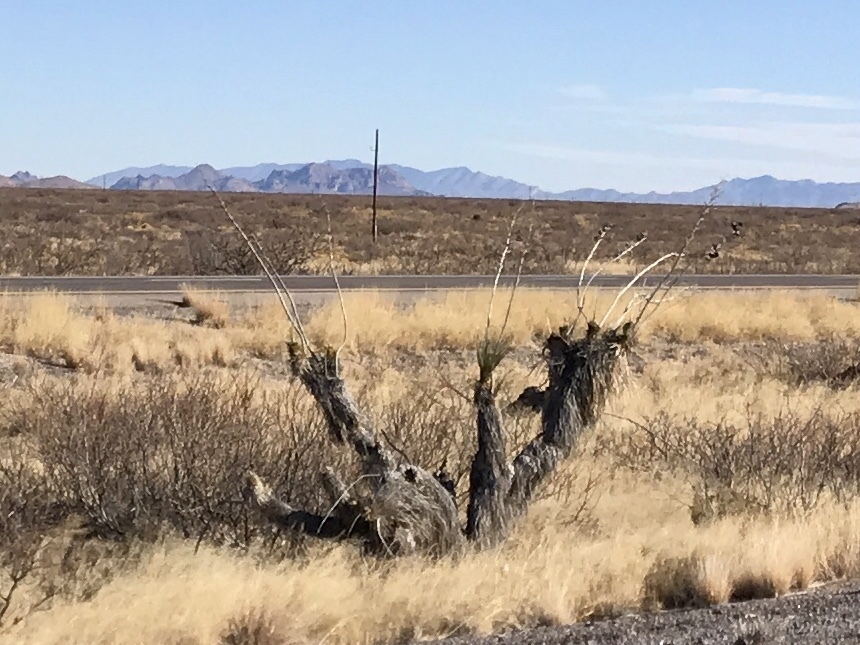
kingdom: Plantae
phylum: Tracheophyta
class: Liliopsida
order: Asparagales
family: Asparagaceae
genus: Yucca
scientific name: Yucca elata
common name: Palmella
